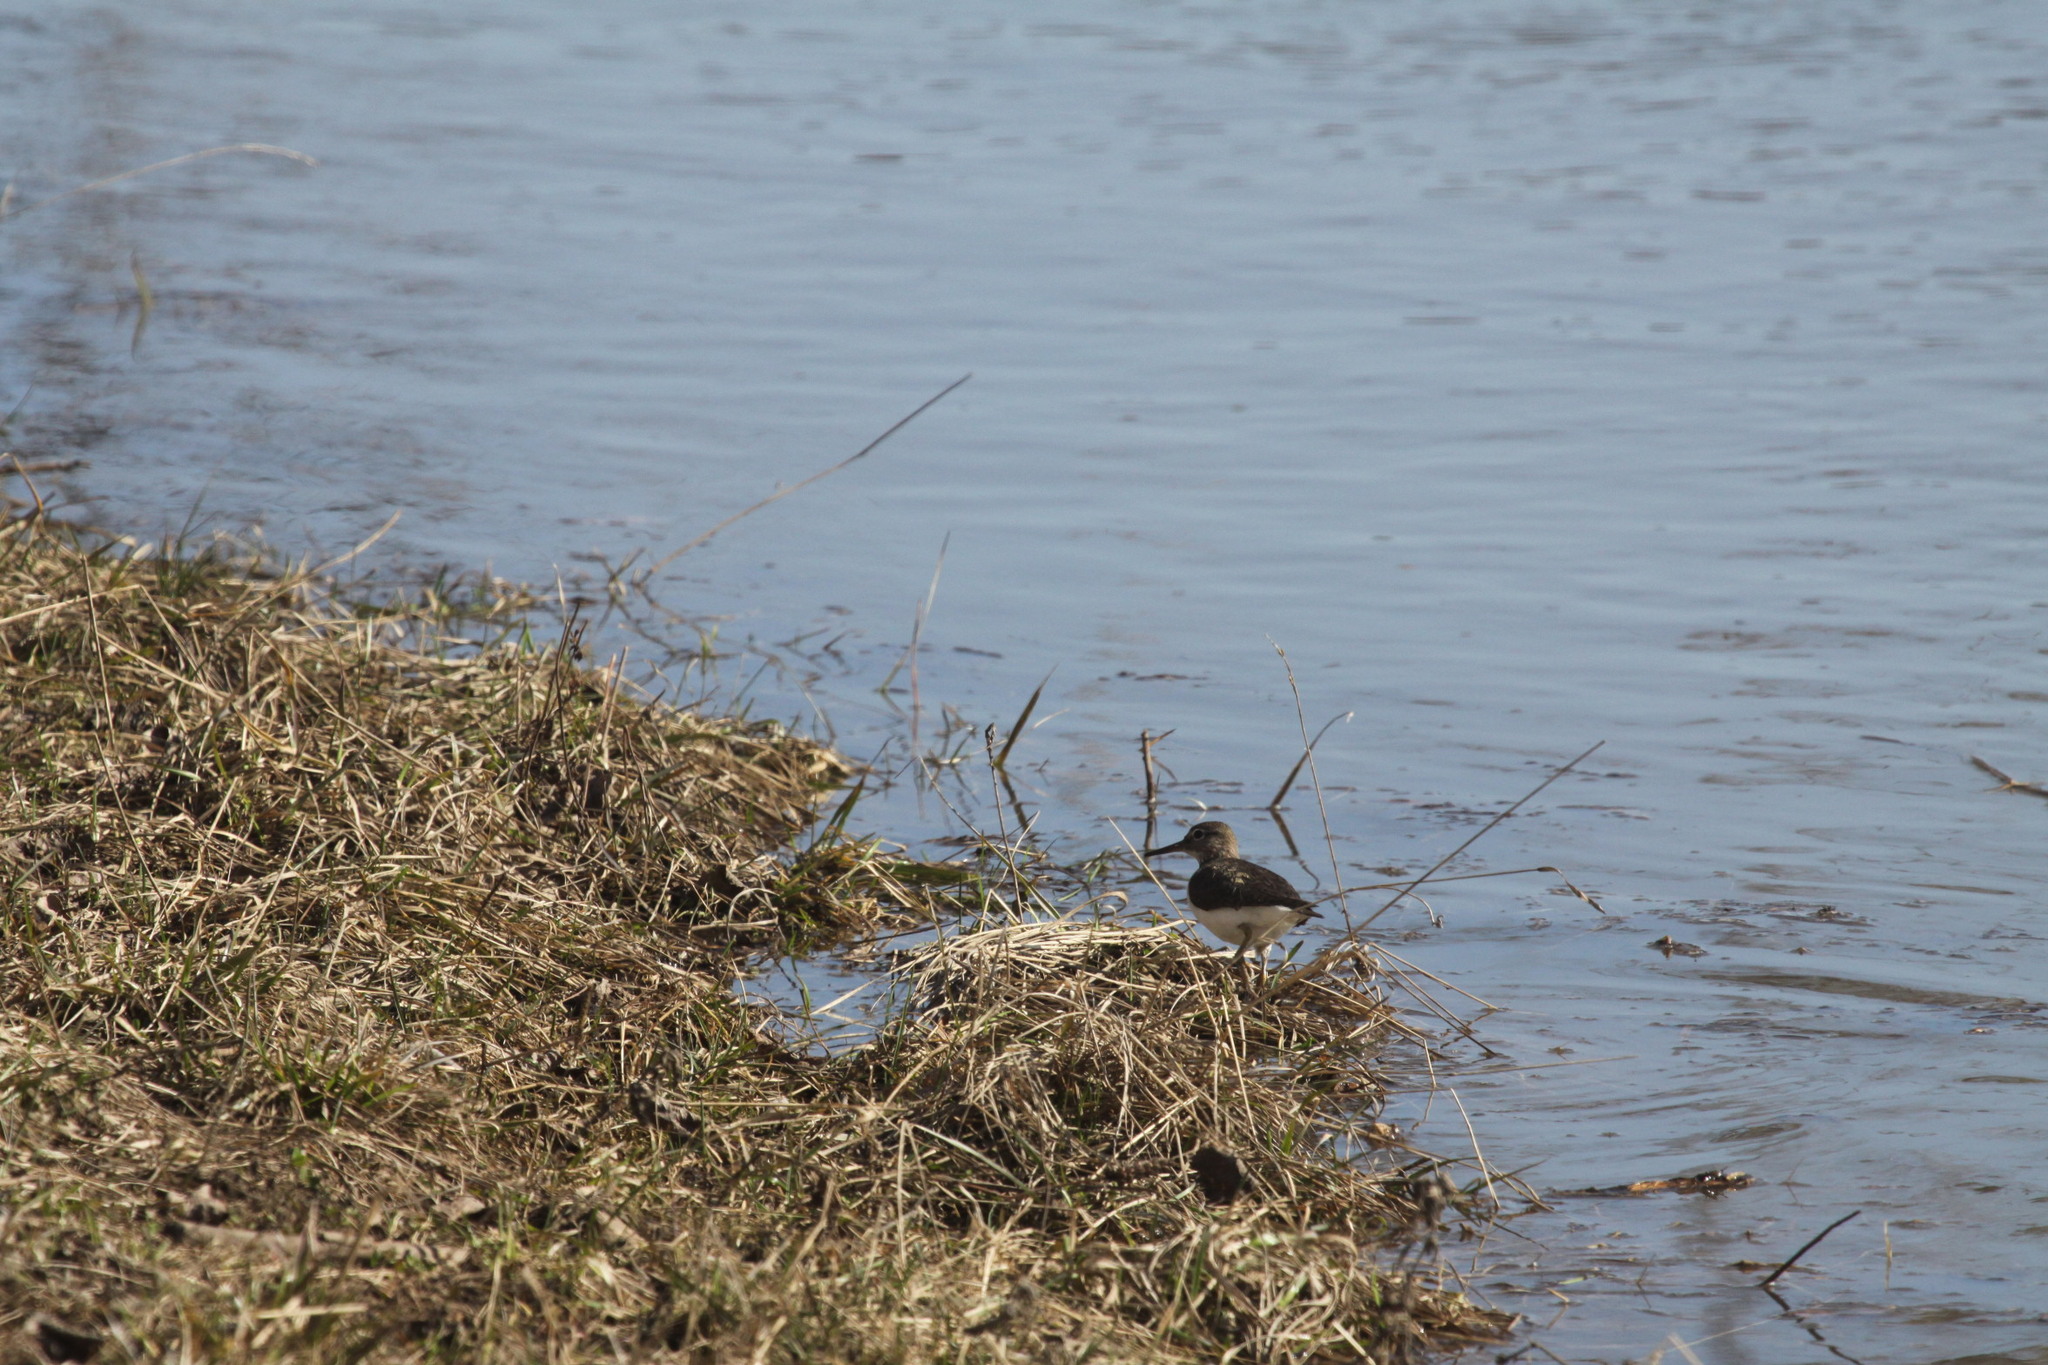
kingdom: Animalia
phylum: Chordata
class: Aves
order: Charadriiformes
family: Scolopacidae
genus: Actitis
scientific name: Actitis hypoleucos
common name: Common sandpiper
